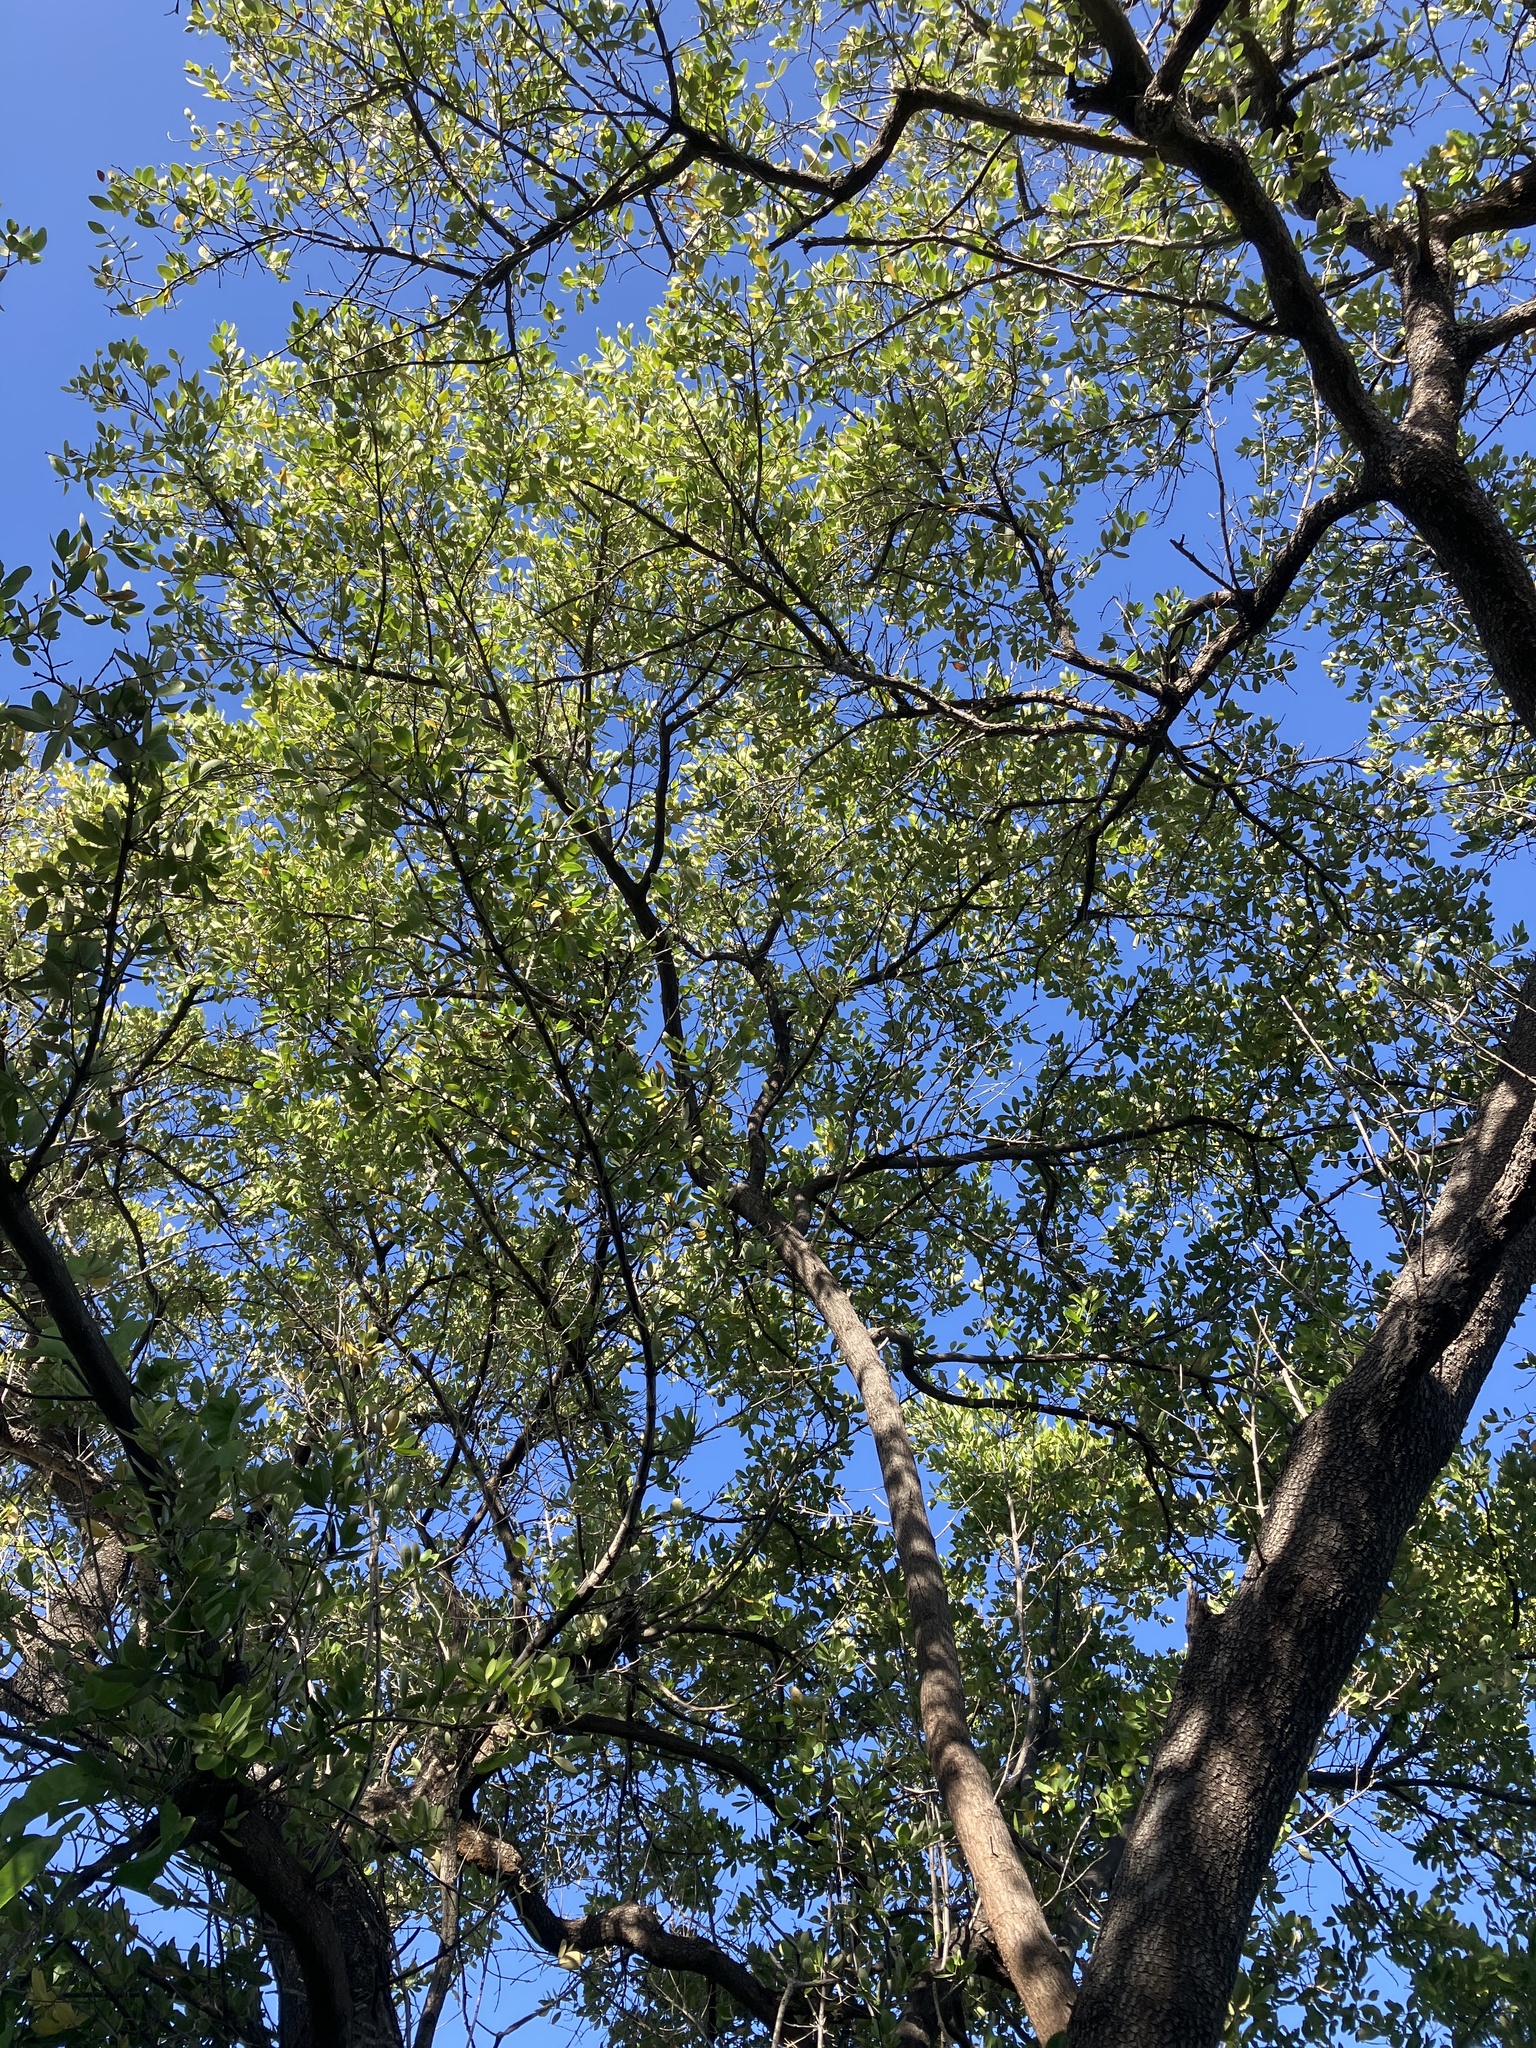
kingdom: Plantae
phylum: Tracheophyta
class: Magnoliopsida
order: Lamiales
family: Acanthaceae
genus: Avicennia
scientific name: Avicennia germinans
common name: Black mangrove
